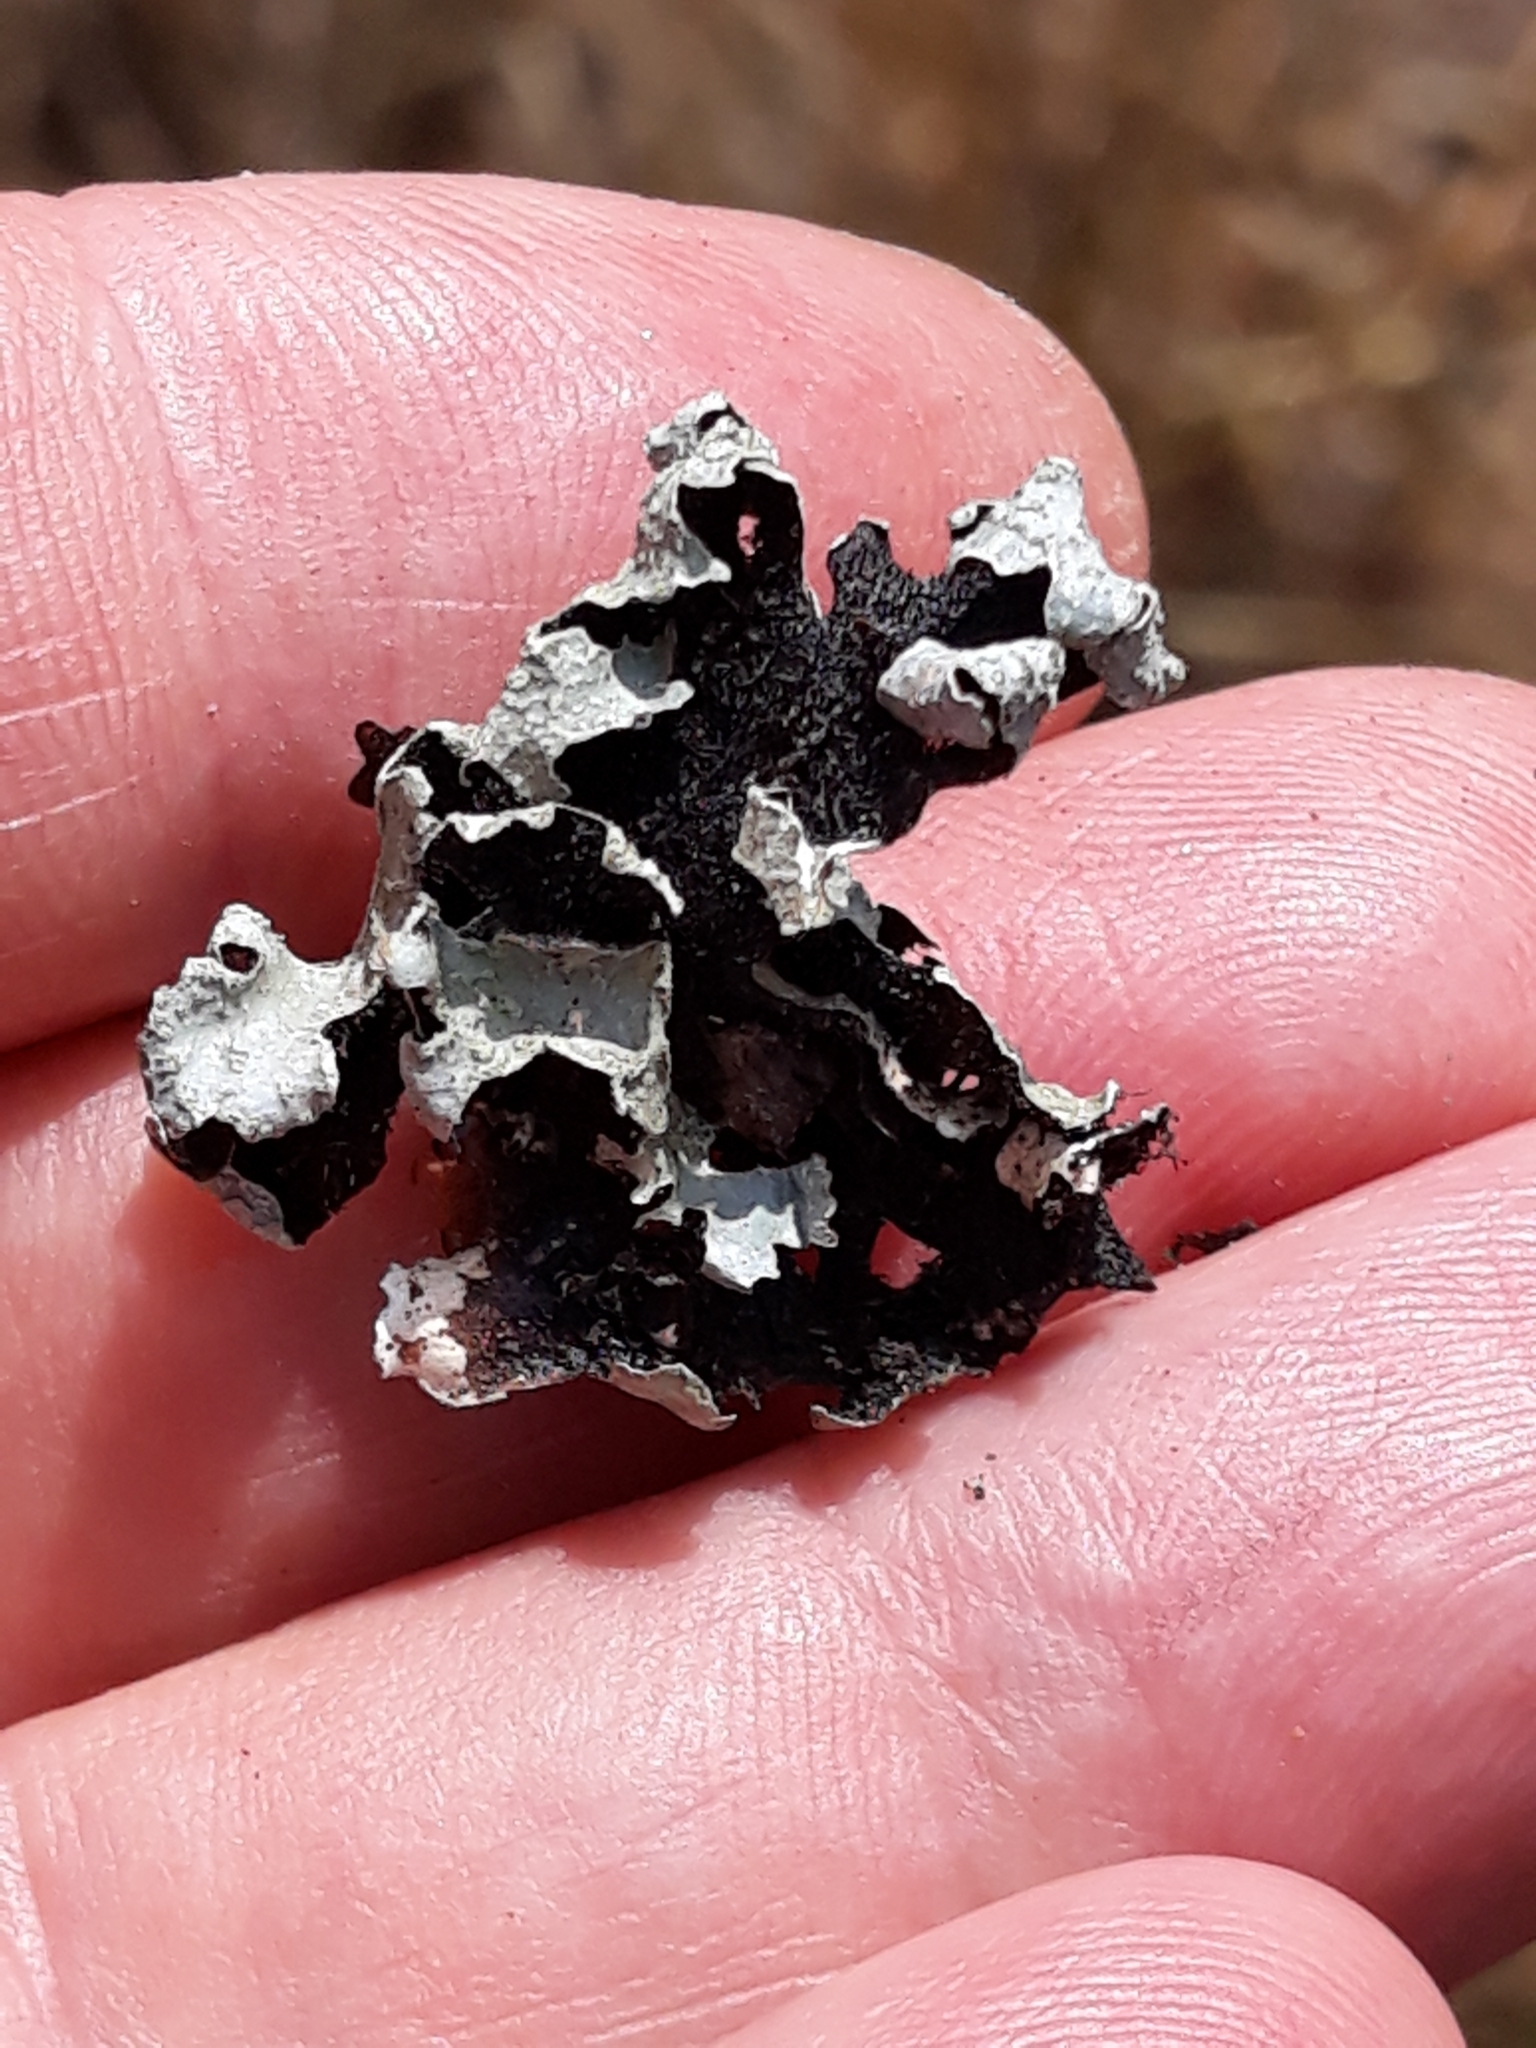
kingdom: Fungi
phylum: Ascomycota
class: Lecanoromycetes
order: Lecanorales
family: Parmeliaceae
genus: Parmelia
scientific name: Parmelia sulcata
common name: Netted shield lichen
